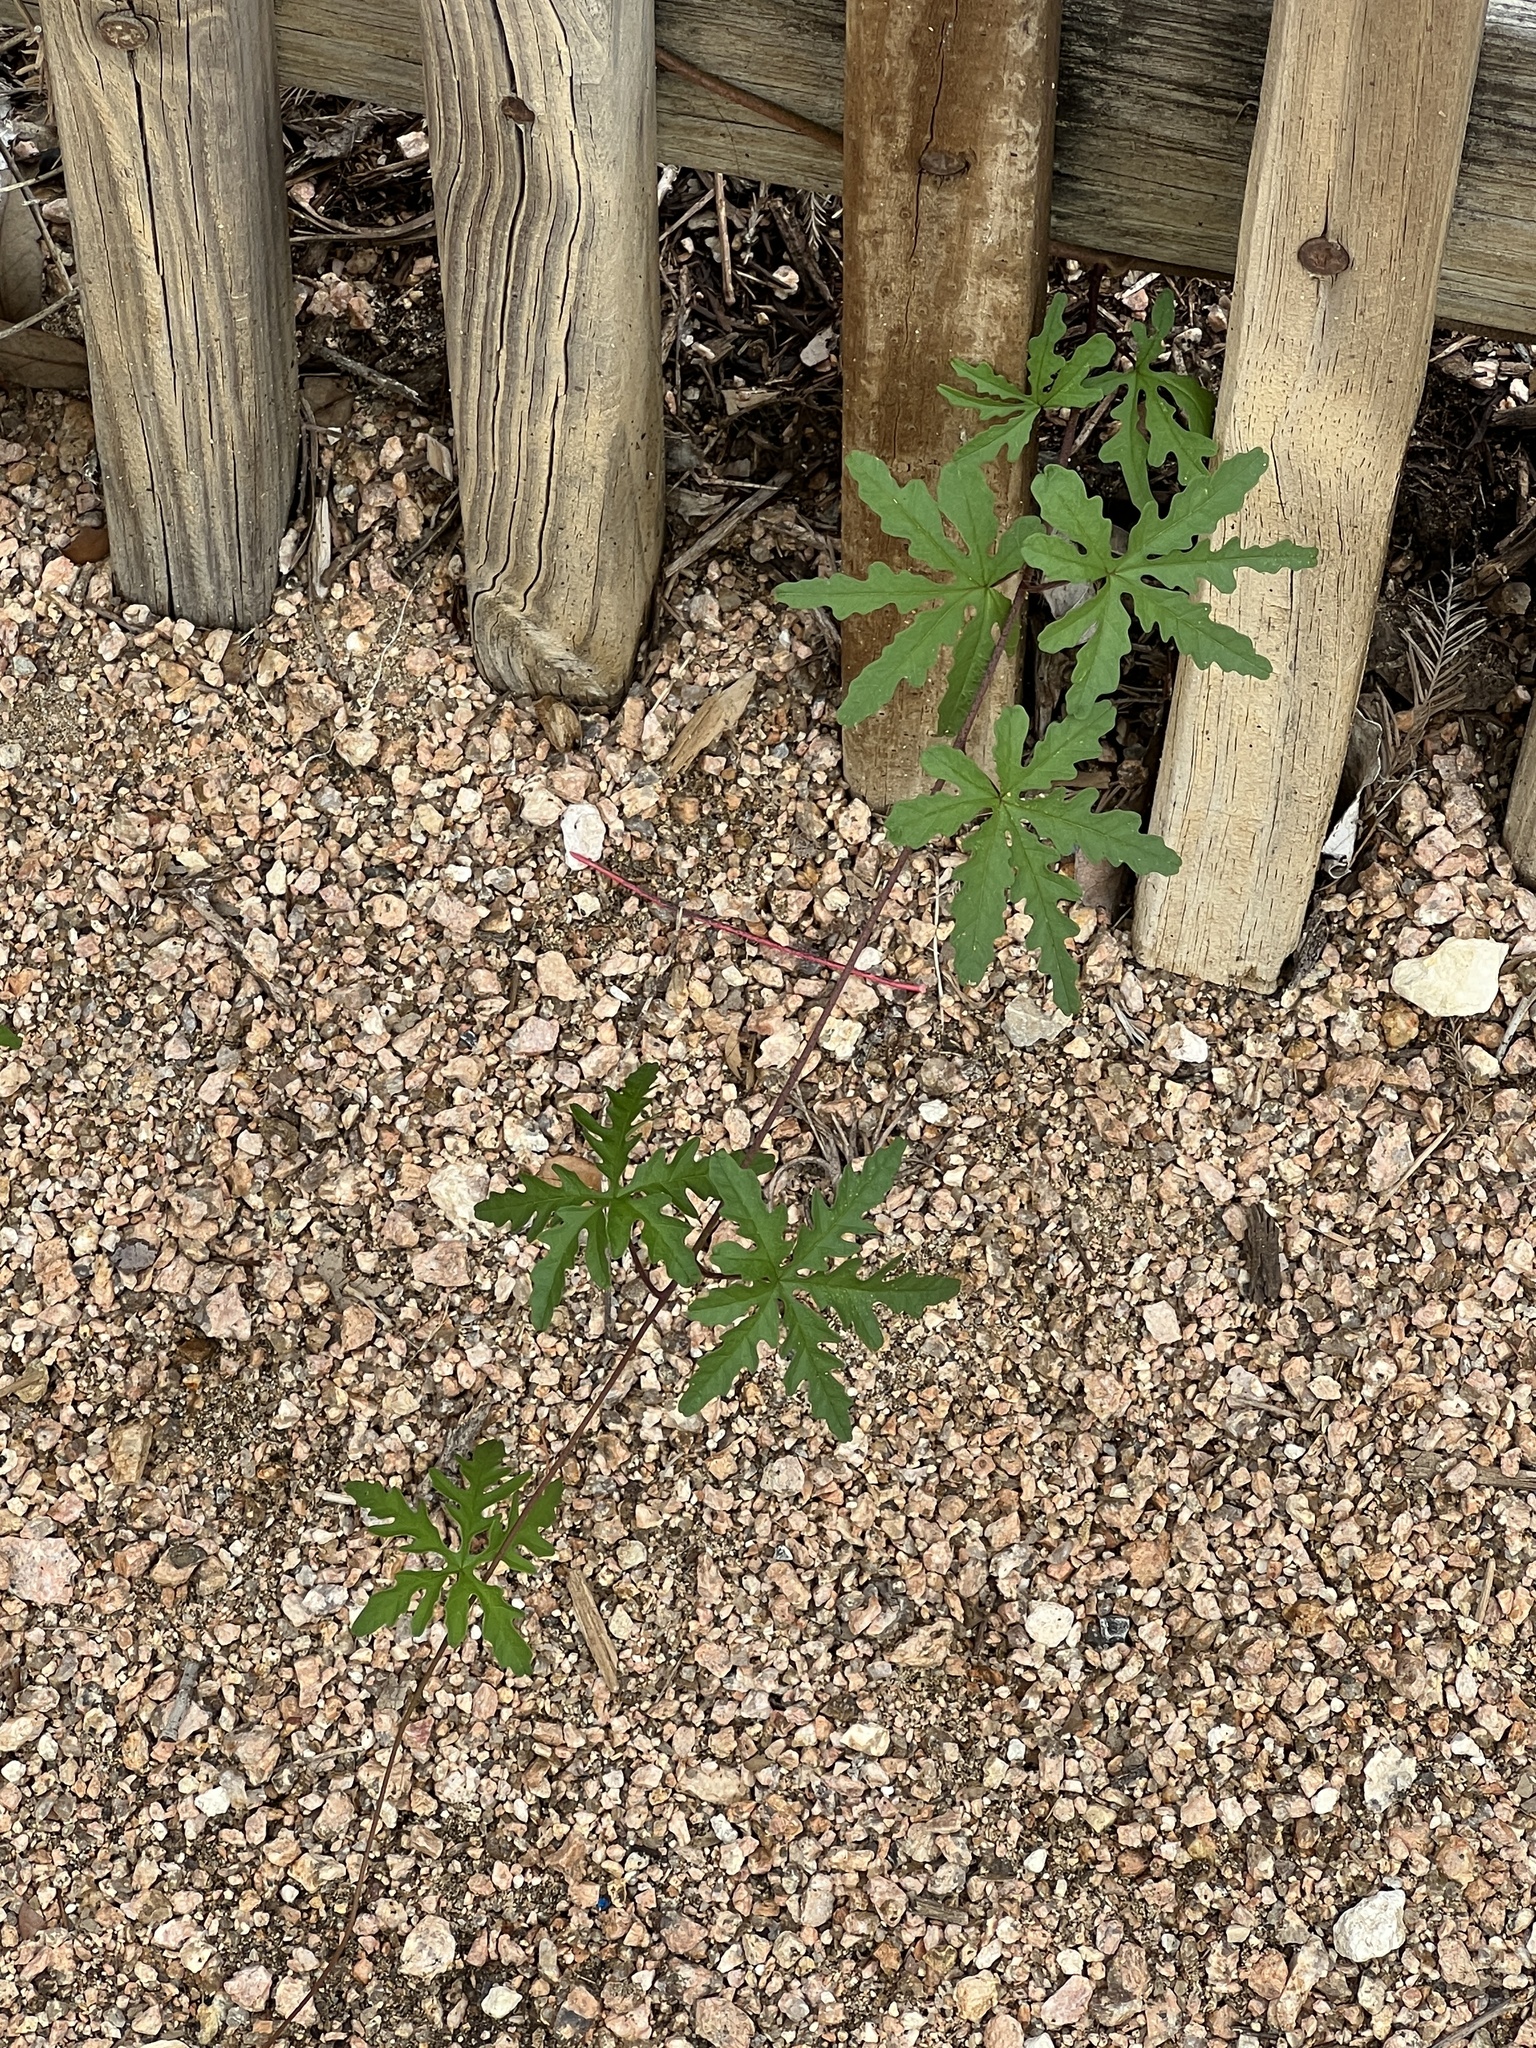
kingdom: Plantae
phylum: Tracheophyta
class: Magnoliopsida
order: Solanales
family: Convolvulaceae
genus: Distimake
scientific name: Distimake dissectus
